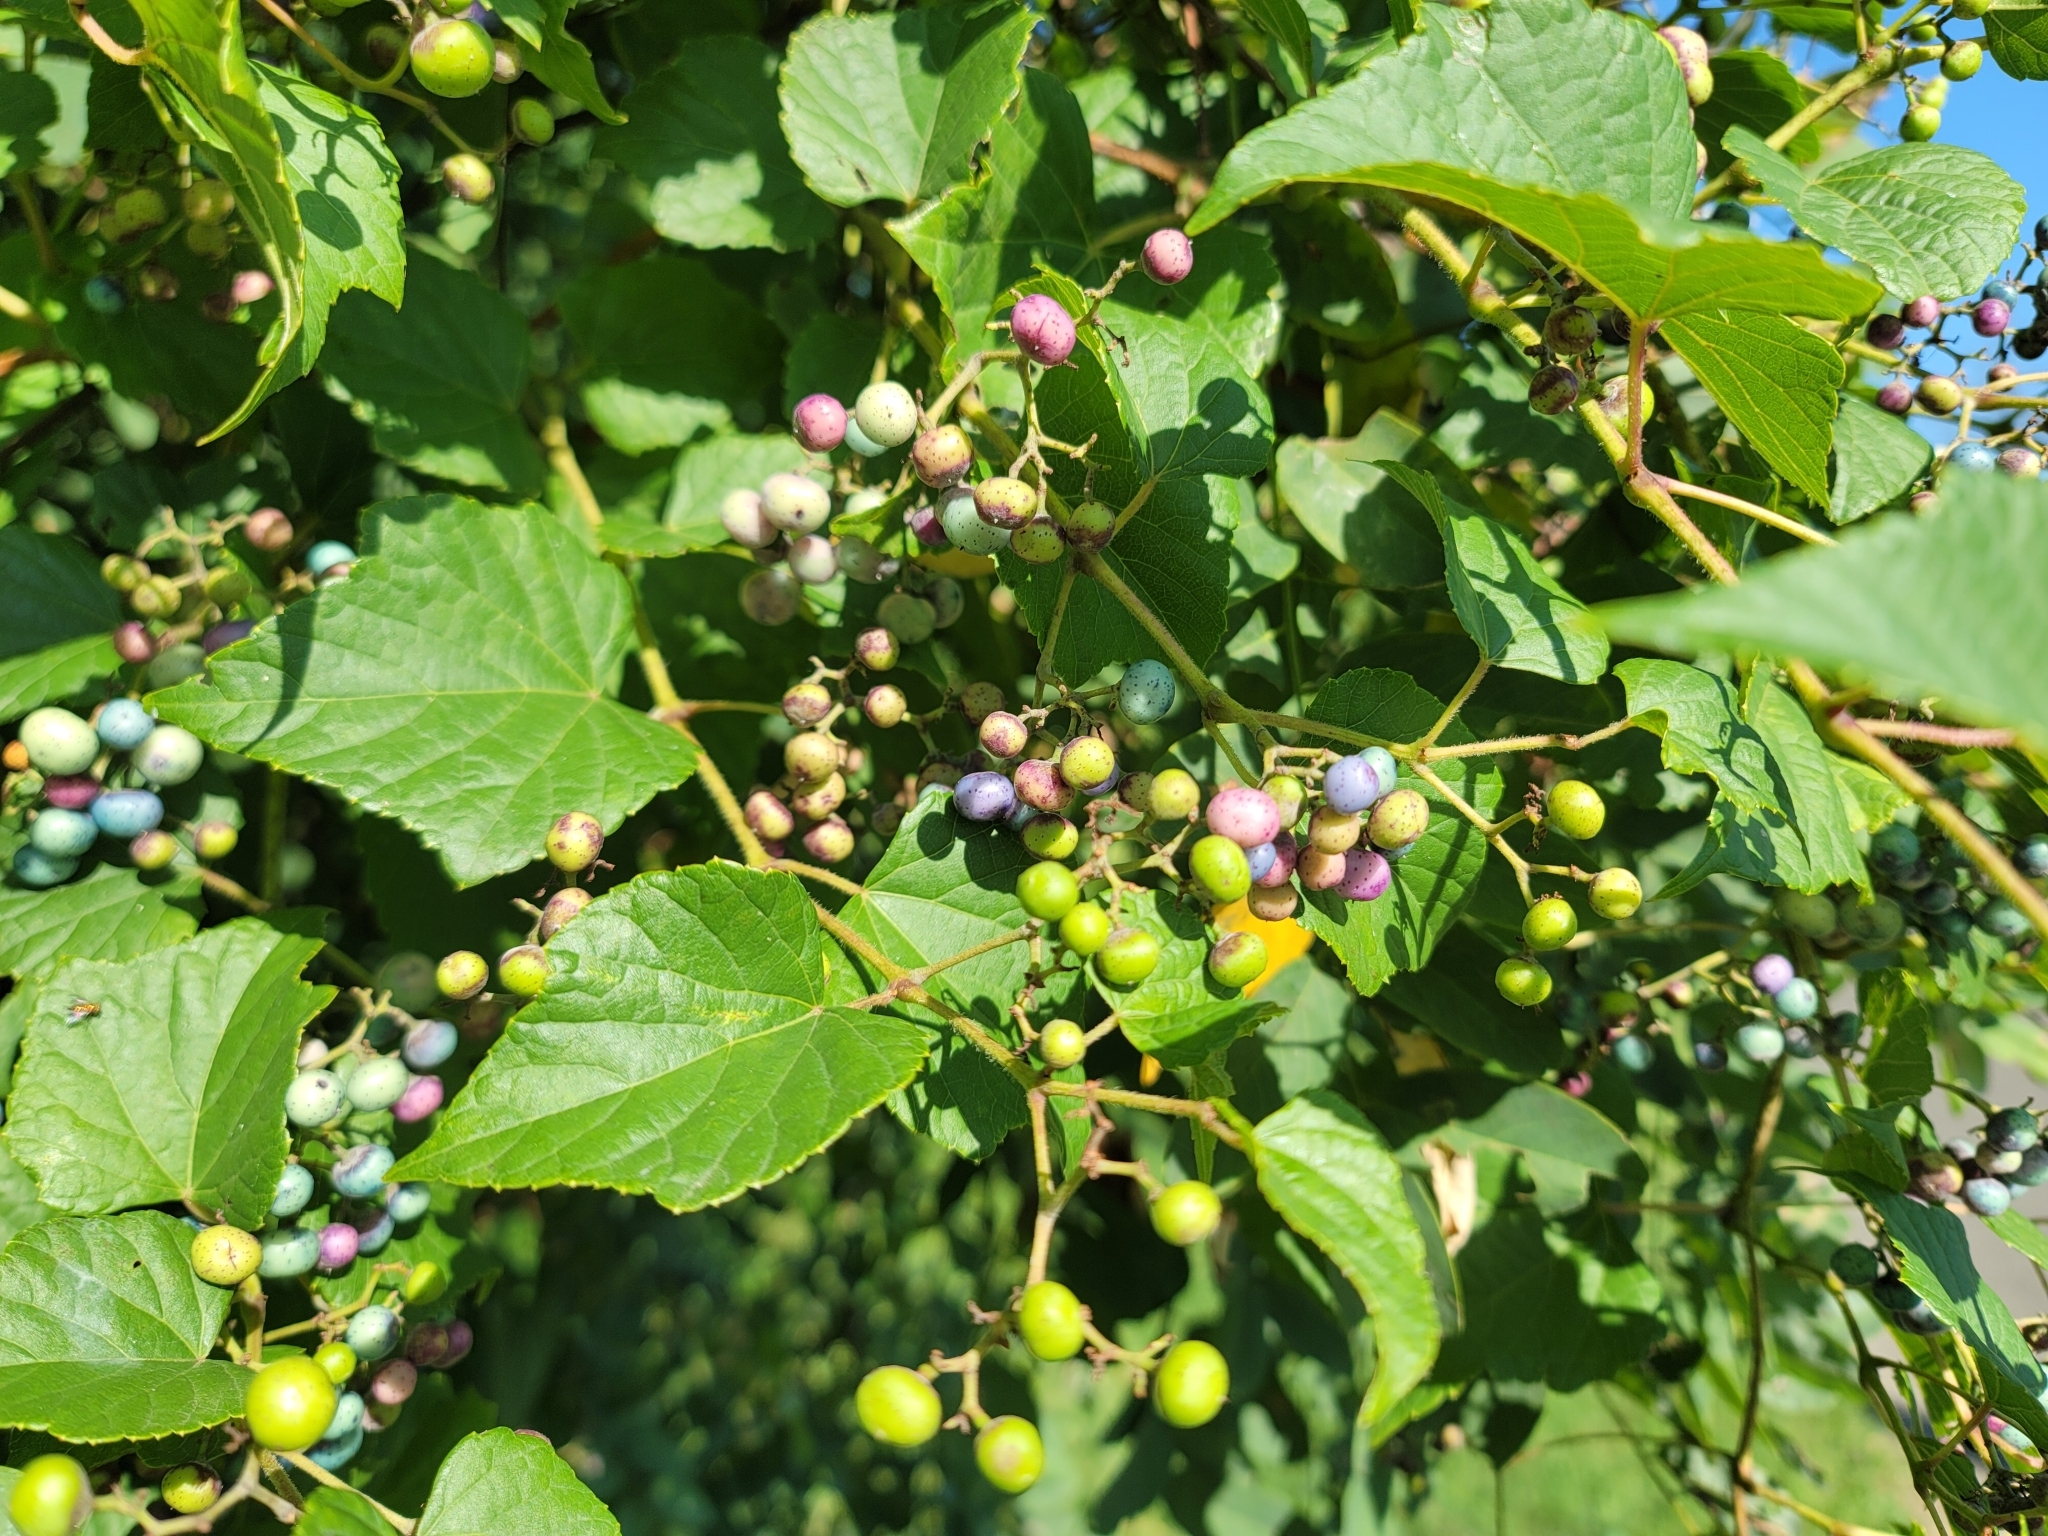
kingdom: Plantae
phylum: Tracheophyta
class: Magnoliopsida
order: Vitales
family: Vitaceae
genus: Ampelopsis
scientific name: Ampelopsis glandulosa
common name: Amur peppervine
